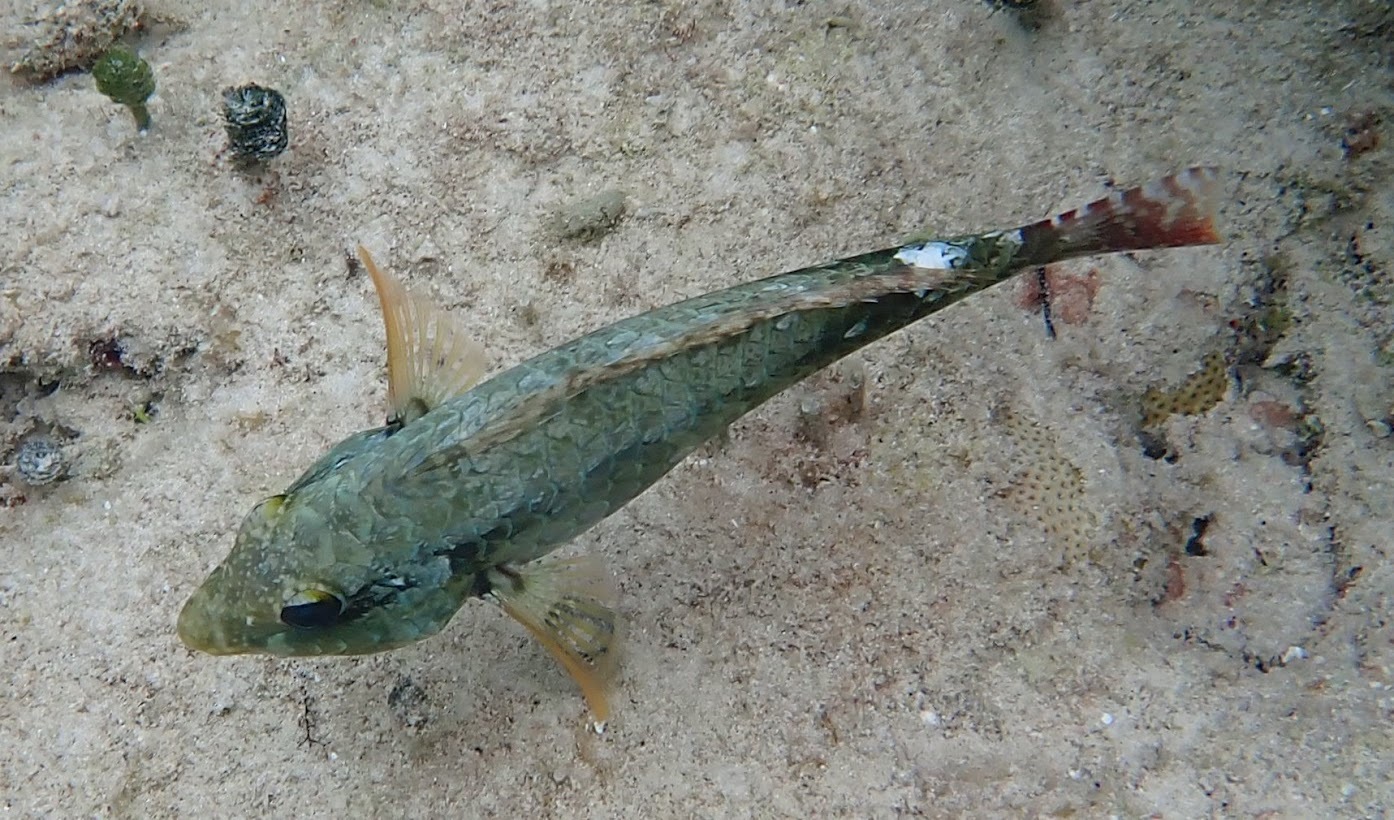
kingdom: Animalia
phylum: Chordata
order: Perciformes
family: Scaridae
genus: Sparisoma
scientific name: Sparisoma aurofrenatum
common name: Redband parrotfish
